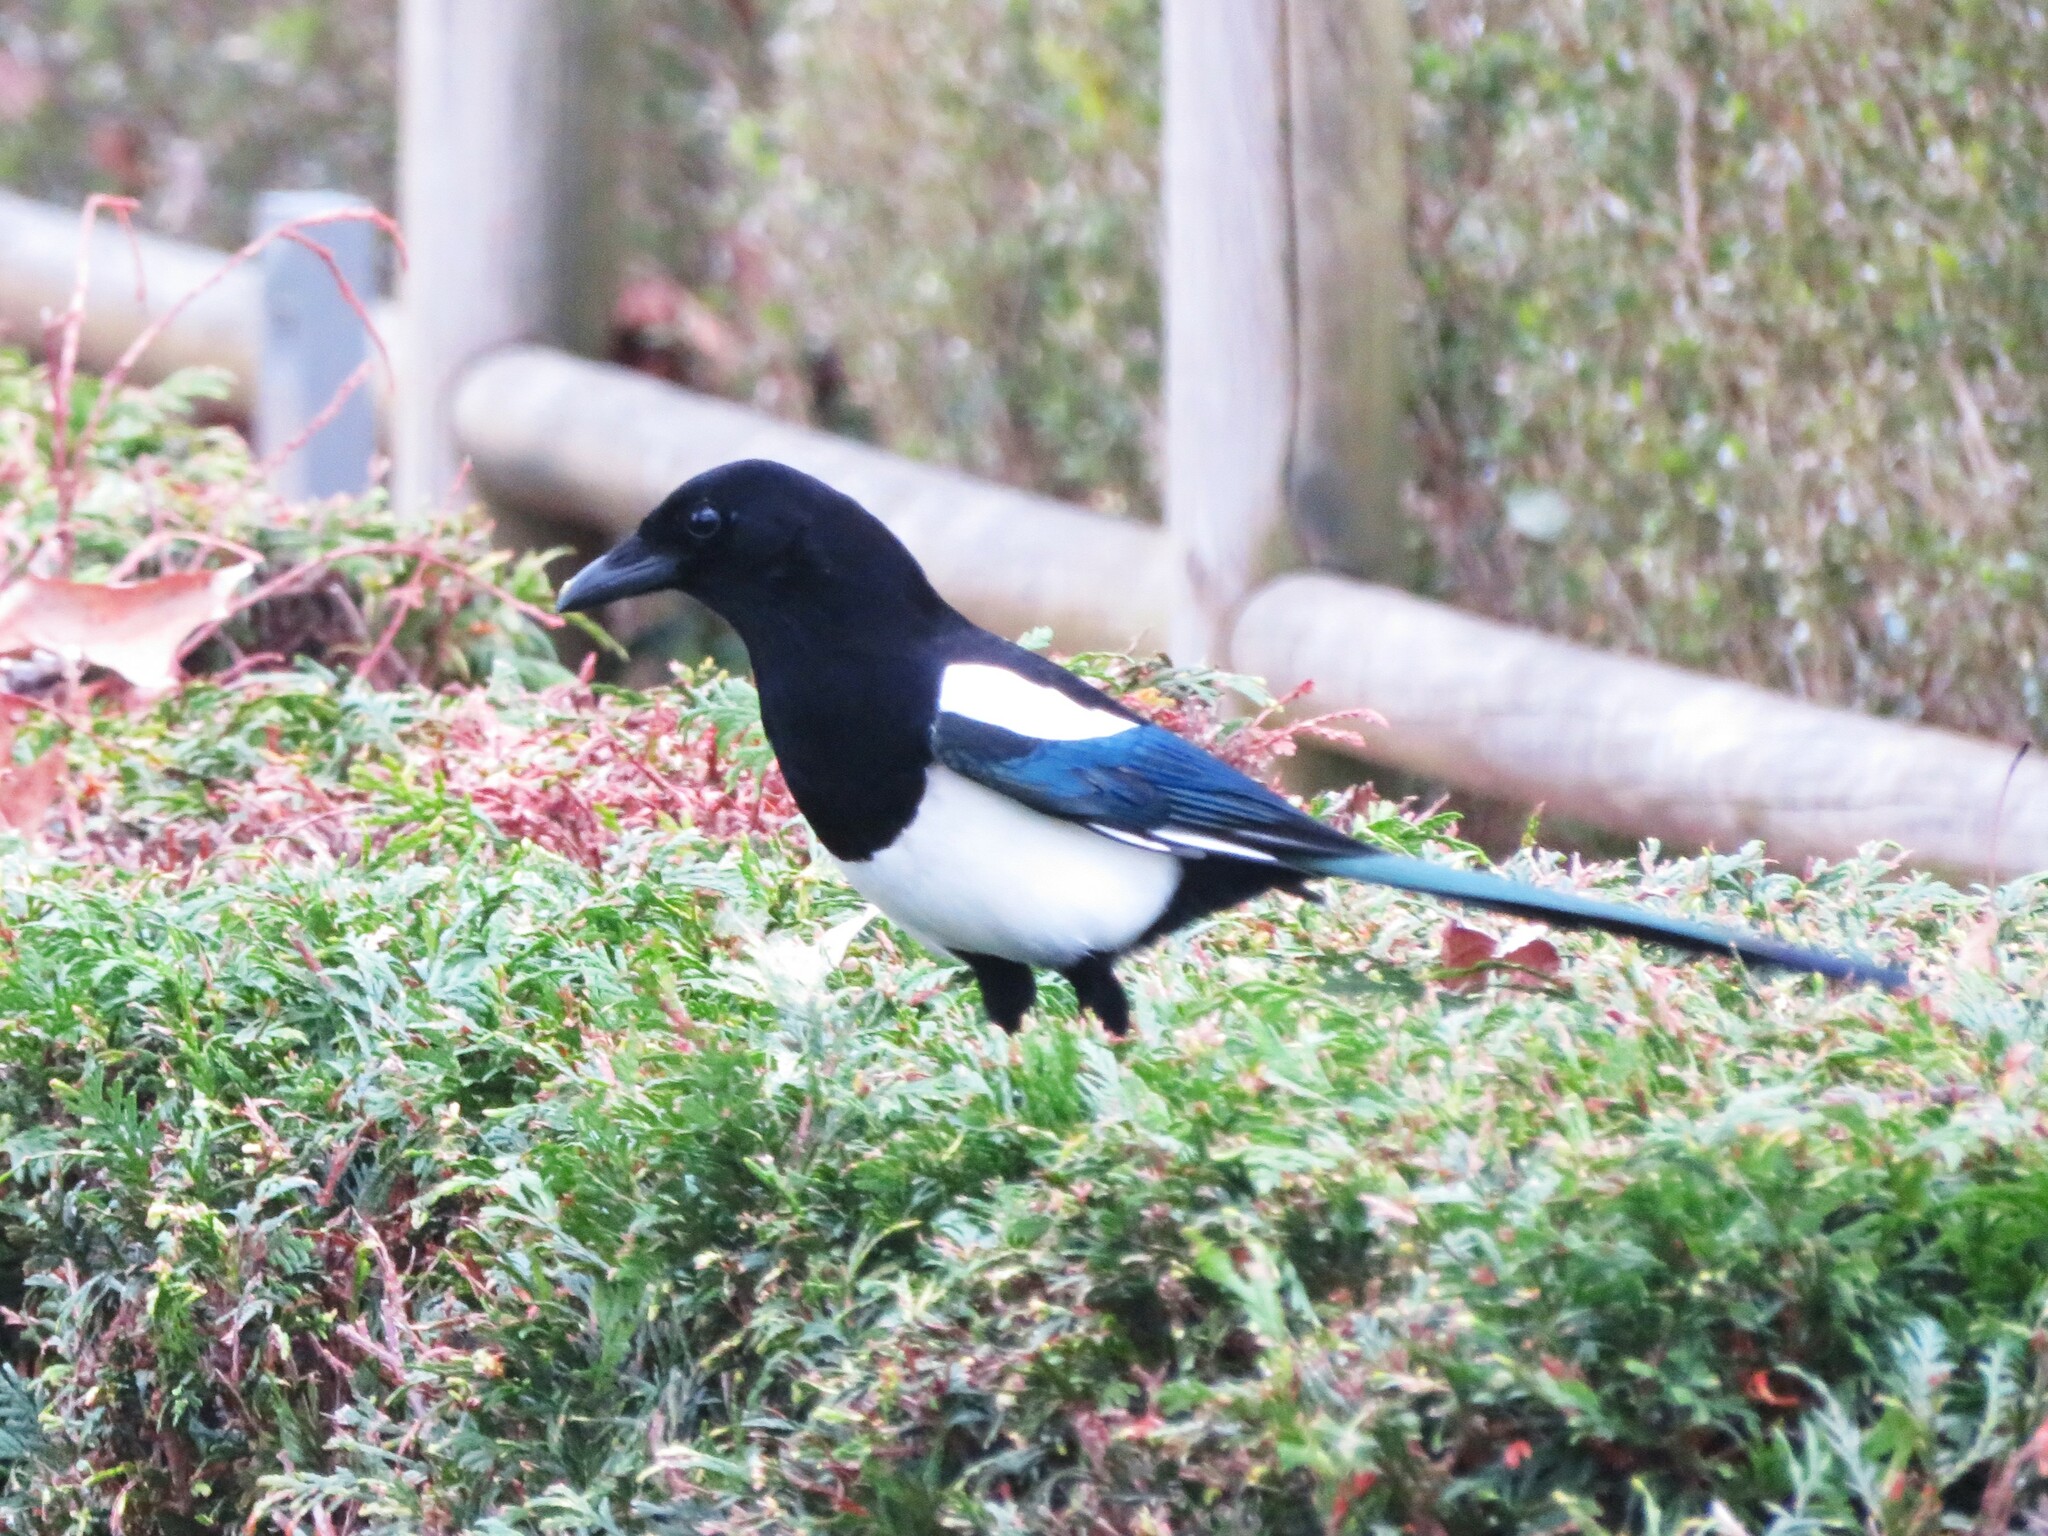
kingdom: Animalia
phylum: Chordata
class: Aves
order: Passeriformes
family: Corvidae
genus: Pica
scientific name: Pica pica
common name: Eurasian magpie
